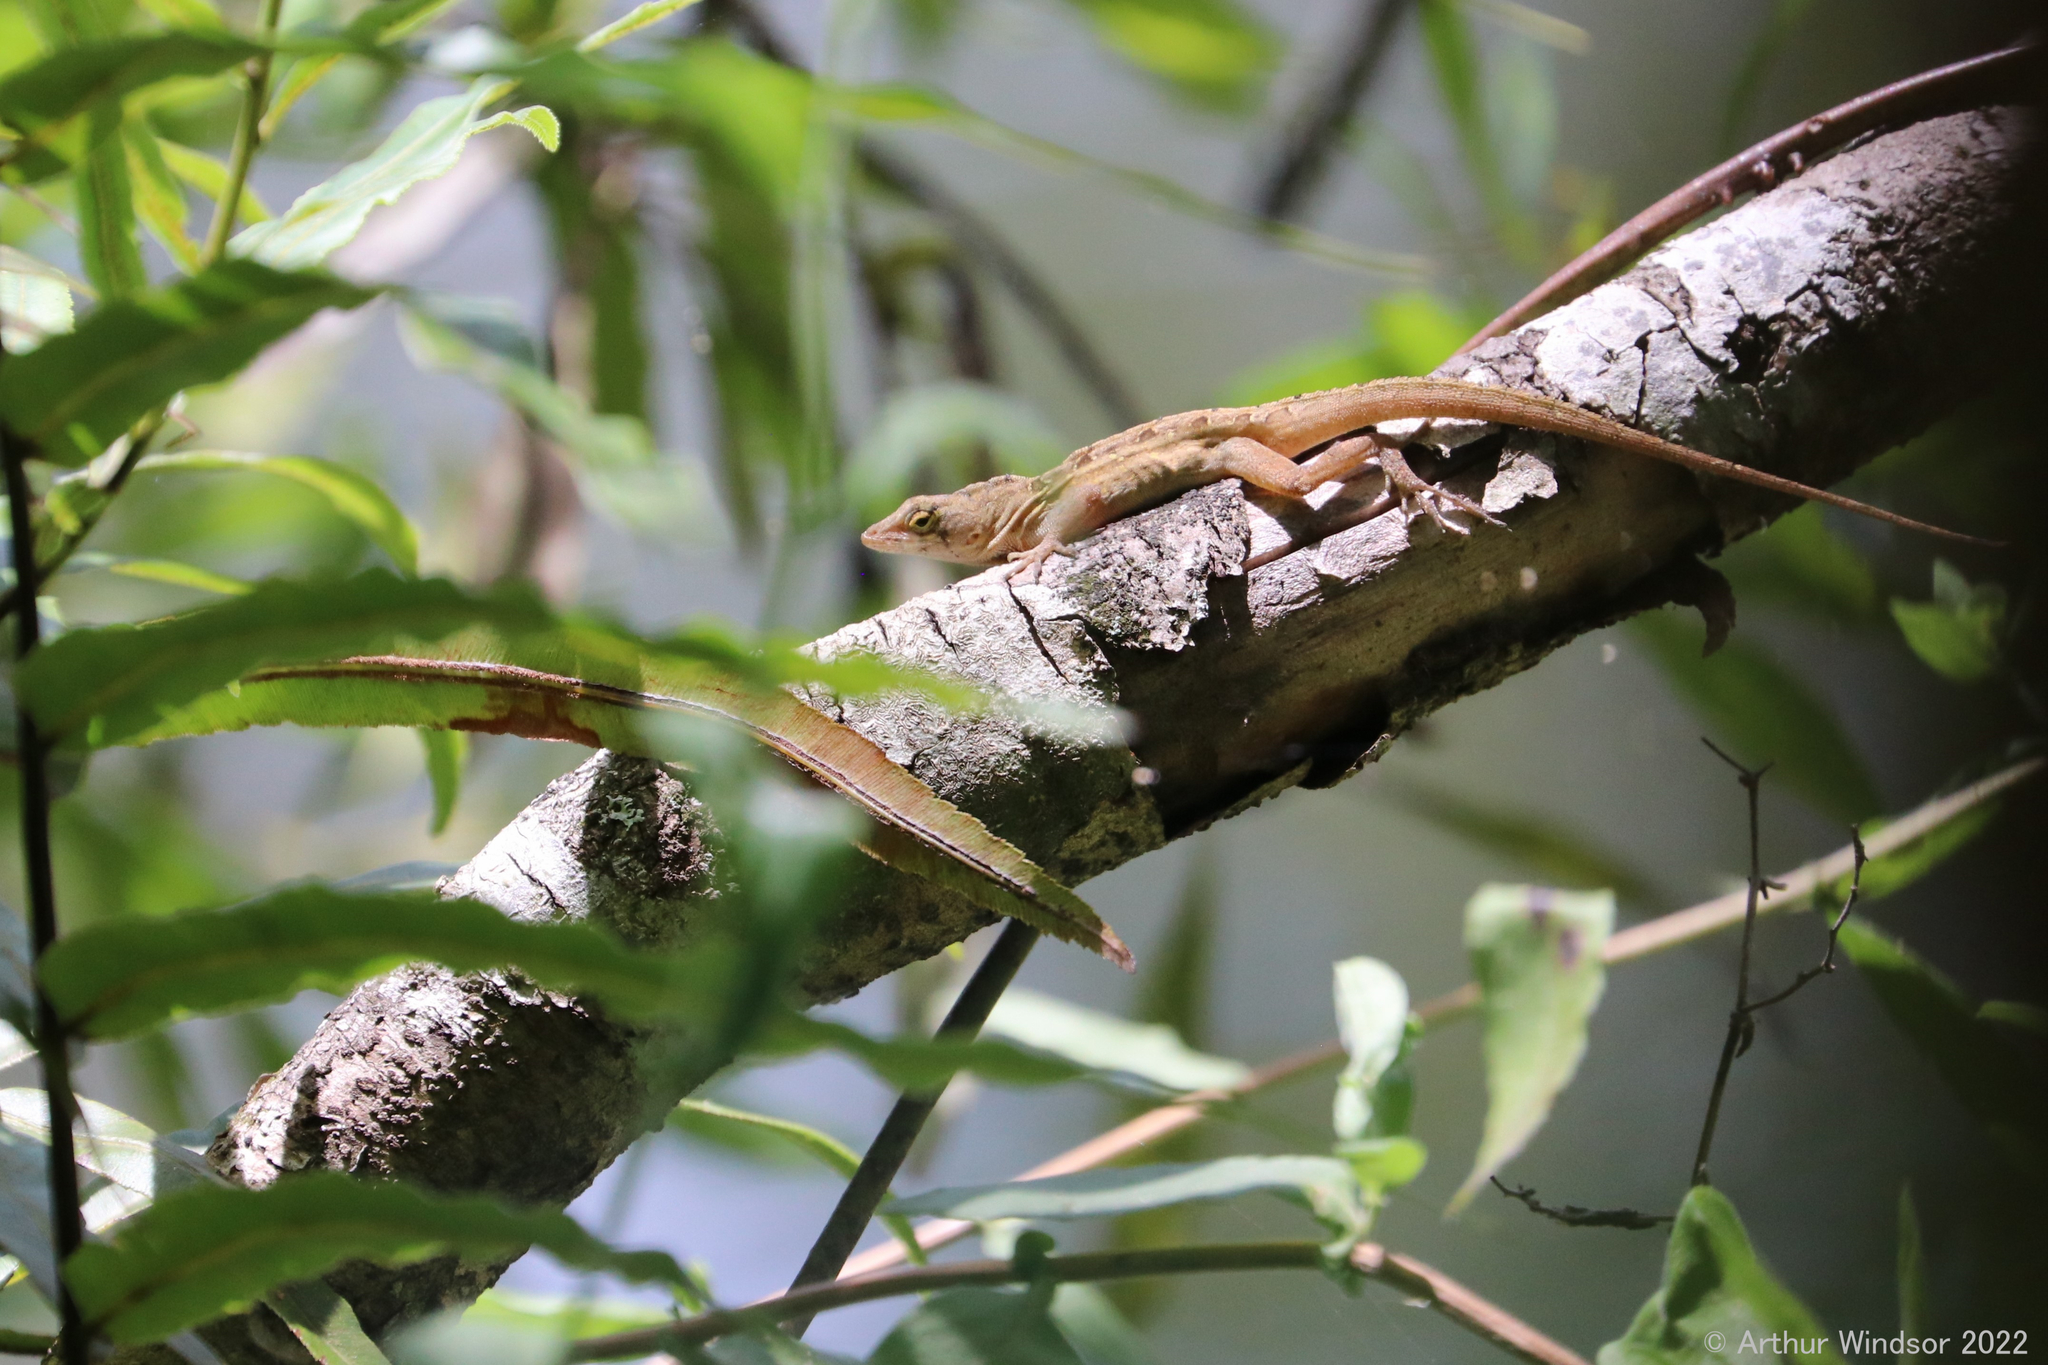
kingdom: Animalia
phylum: Chordata
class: Squamata
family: Dactyloidae
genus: Anolis
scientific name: Anolis sagrei
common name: Brown anole
